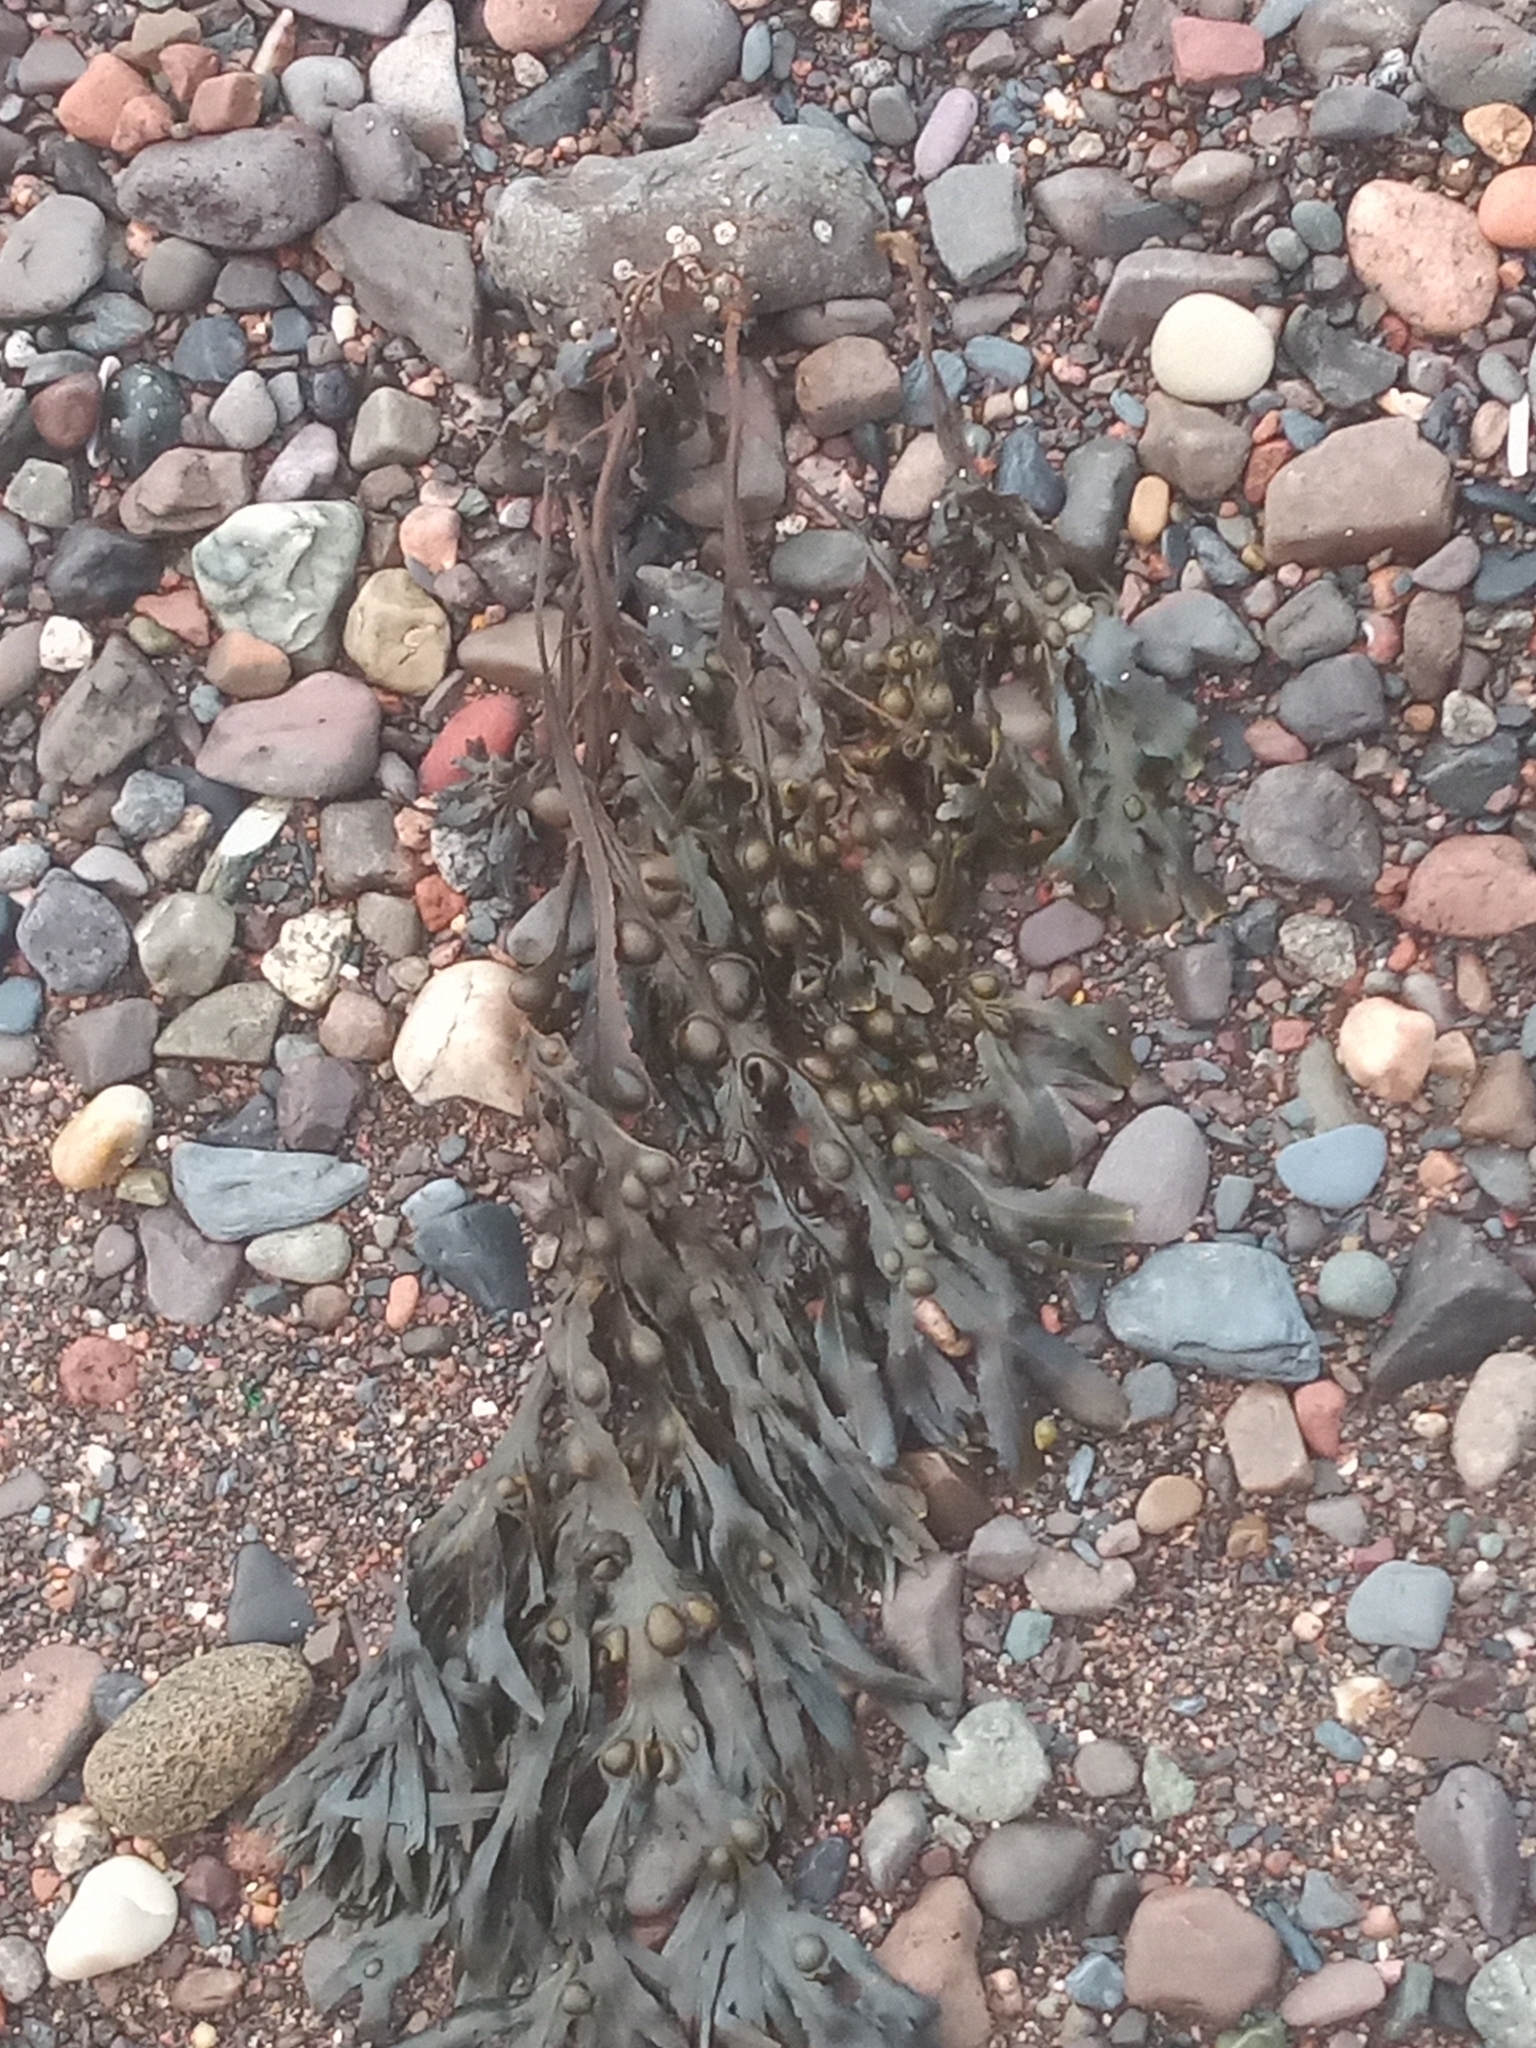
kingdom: Chromista
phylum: Ochrophyta
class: Phaeophyceae
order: Fucales
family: Fucaceae
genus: Fucus
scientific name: Fucus vesiculosus
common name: Bladder wrack
